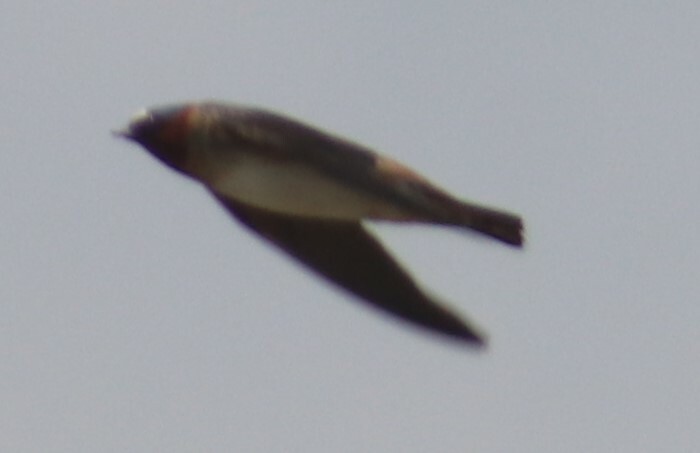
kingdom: Animalia
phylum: Chordata
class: Aves
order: Passeriformes
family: Hirundinidae
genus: Petrochelidon
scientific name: Petrochelidon pyrrhonota
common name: American cliff swallow
